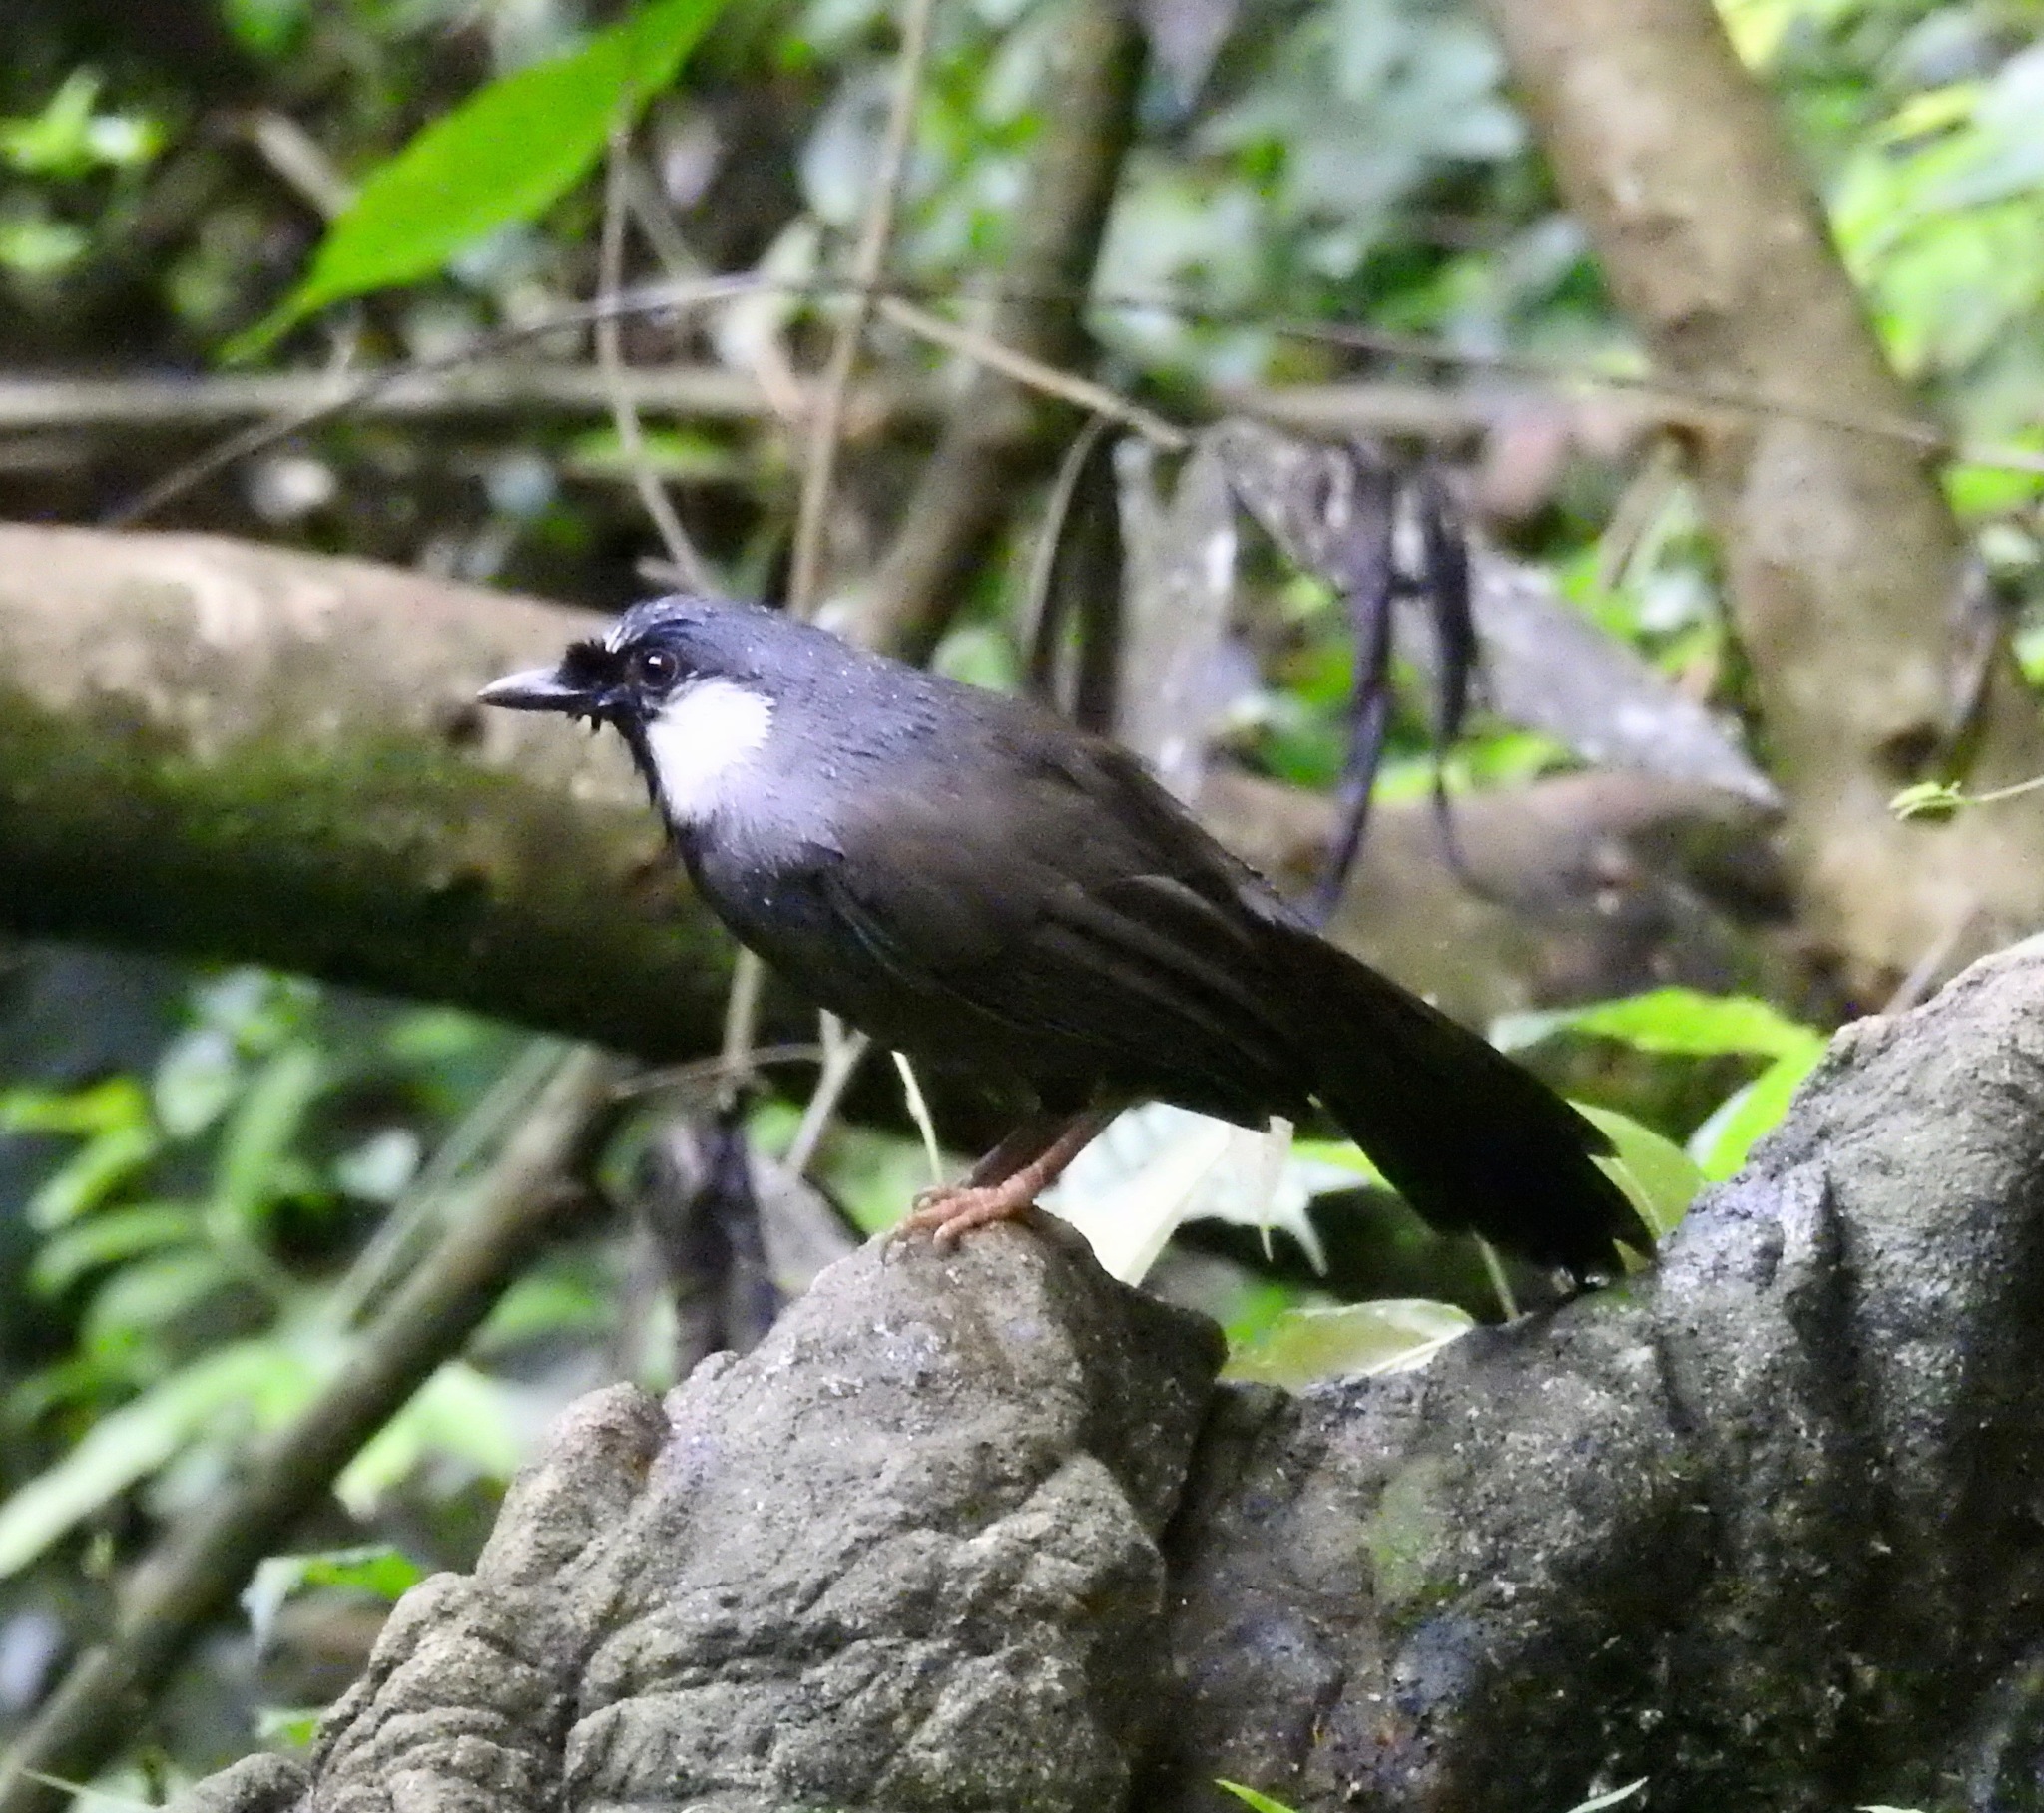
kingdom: Animalia
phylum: Chordata
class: Aves
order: Passeriformes
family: Leiothrichidae
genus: Garrulax
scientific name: Garrulax chinensis
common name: Black-throated laughingthrush
